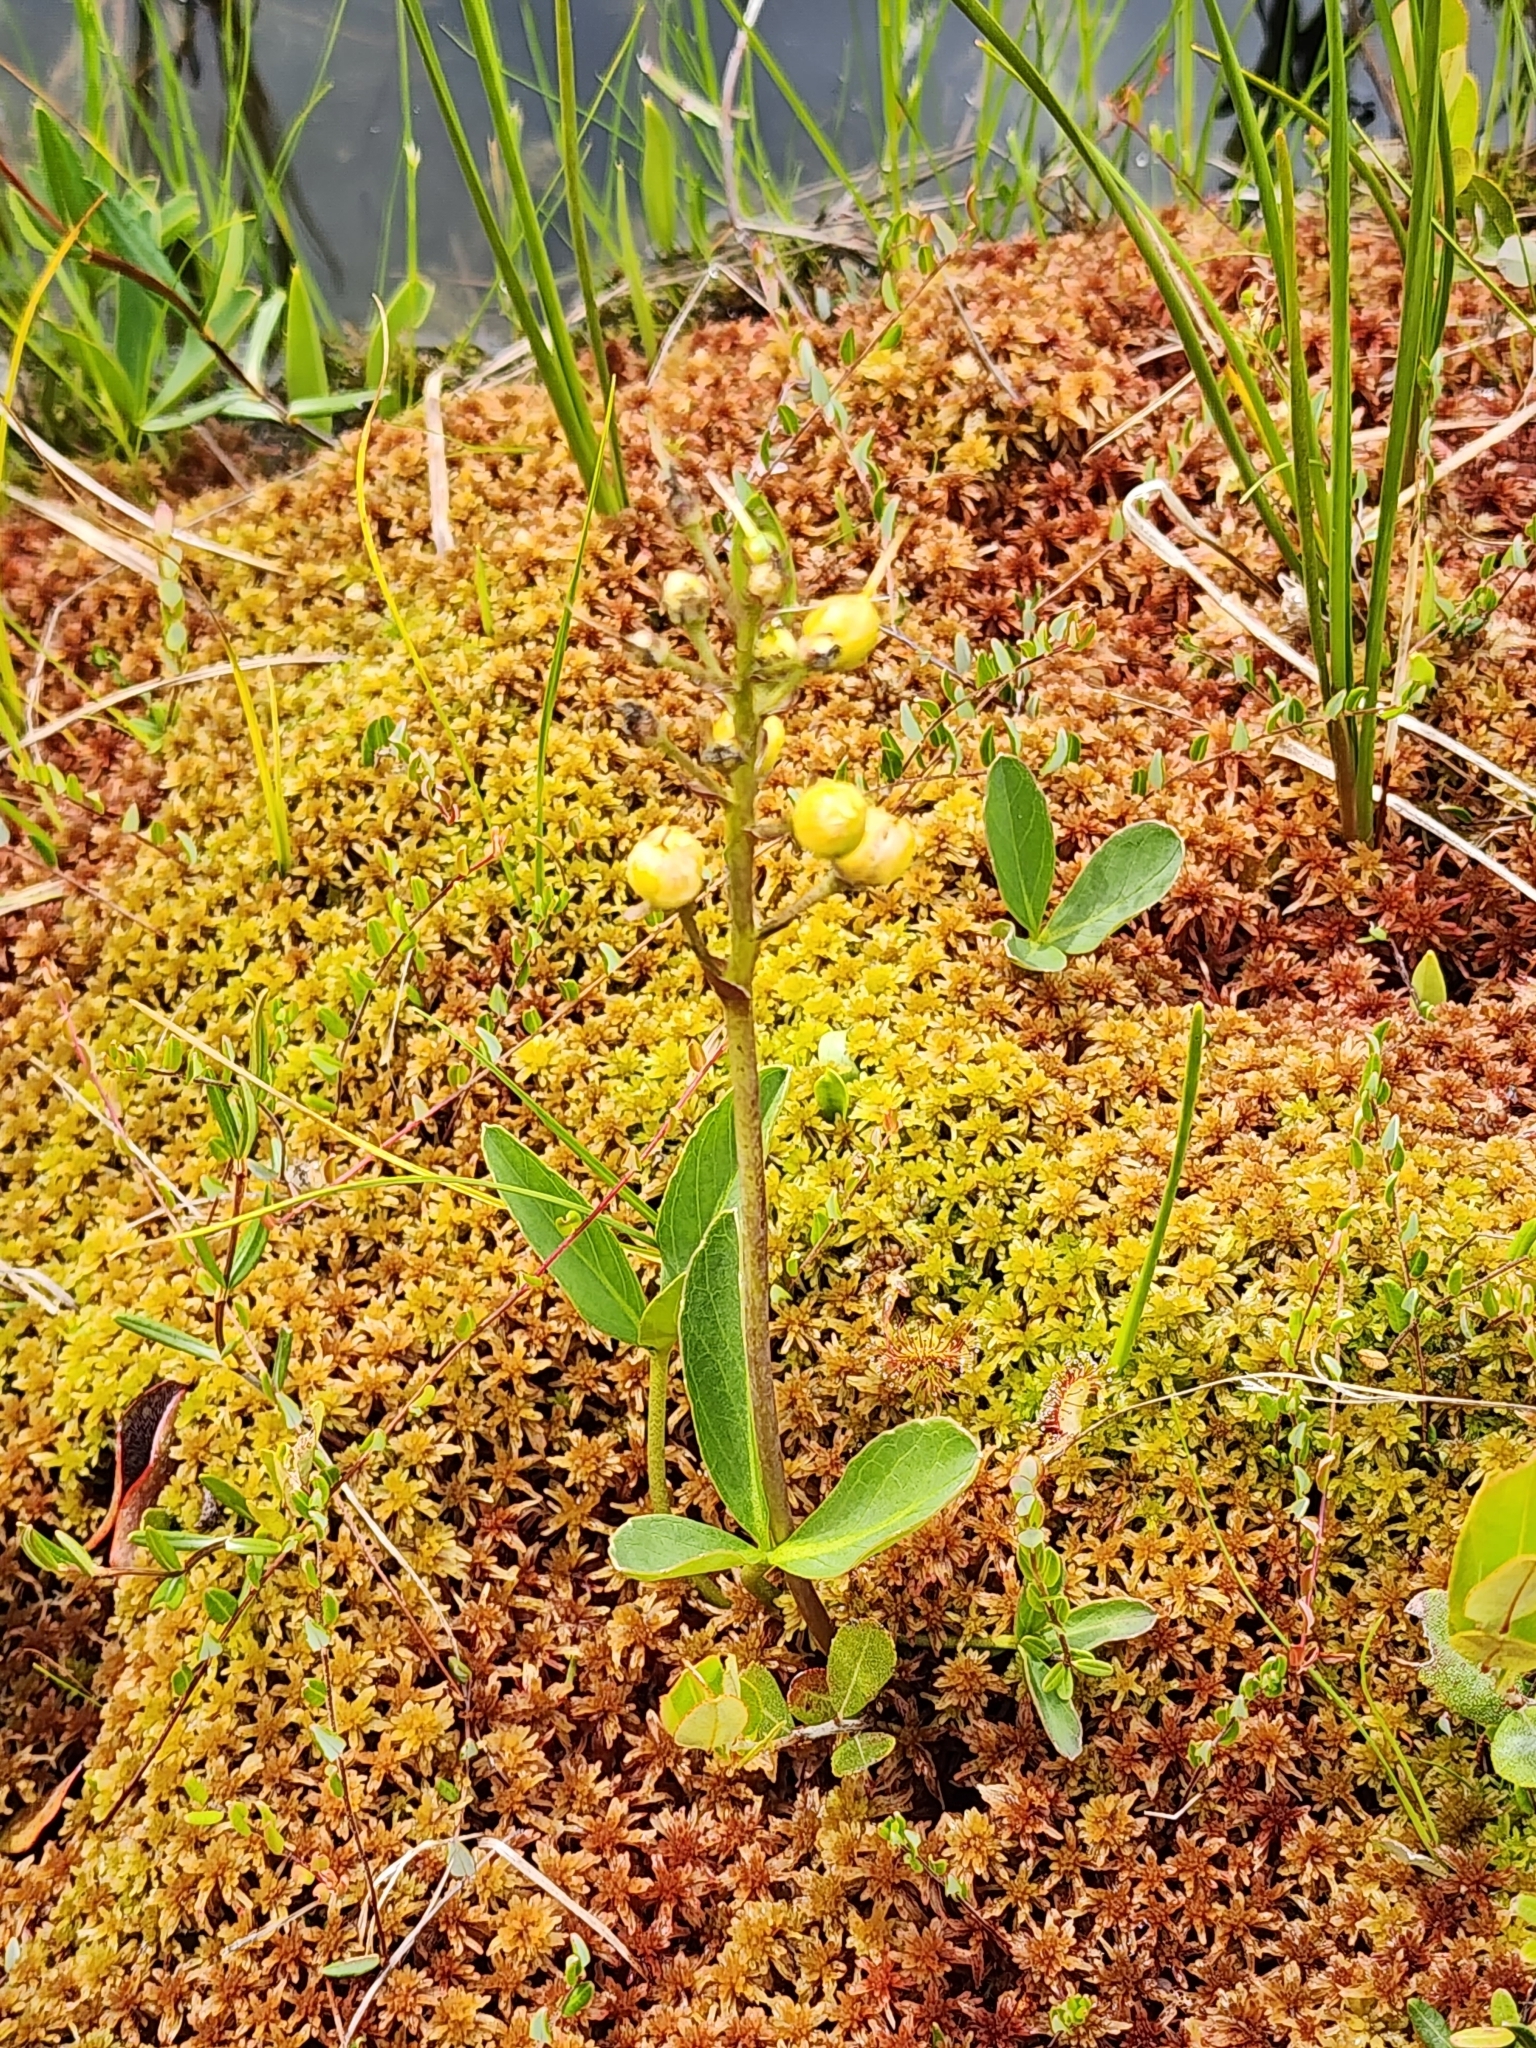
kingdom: Plantae
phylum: Tracheophyta
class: Magnoliopsida
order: Asterales
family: Menyanthaceae
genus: Menyanthes
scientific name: Menyanthes trifoliata
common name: Bogbean
